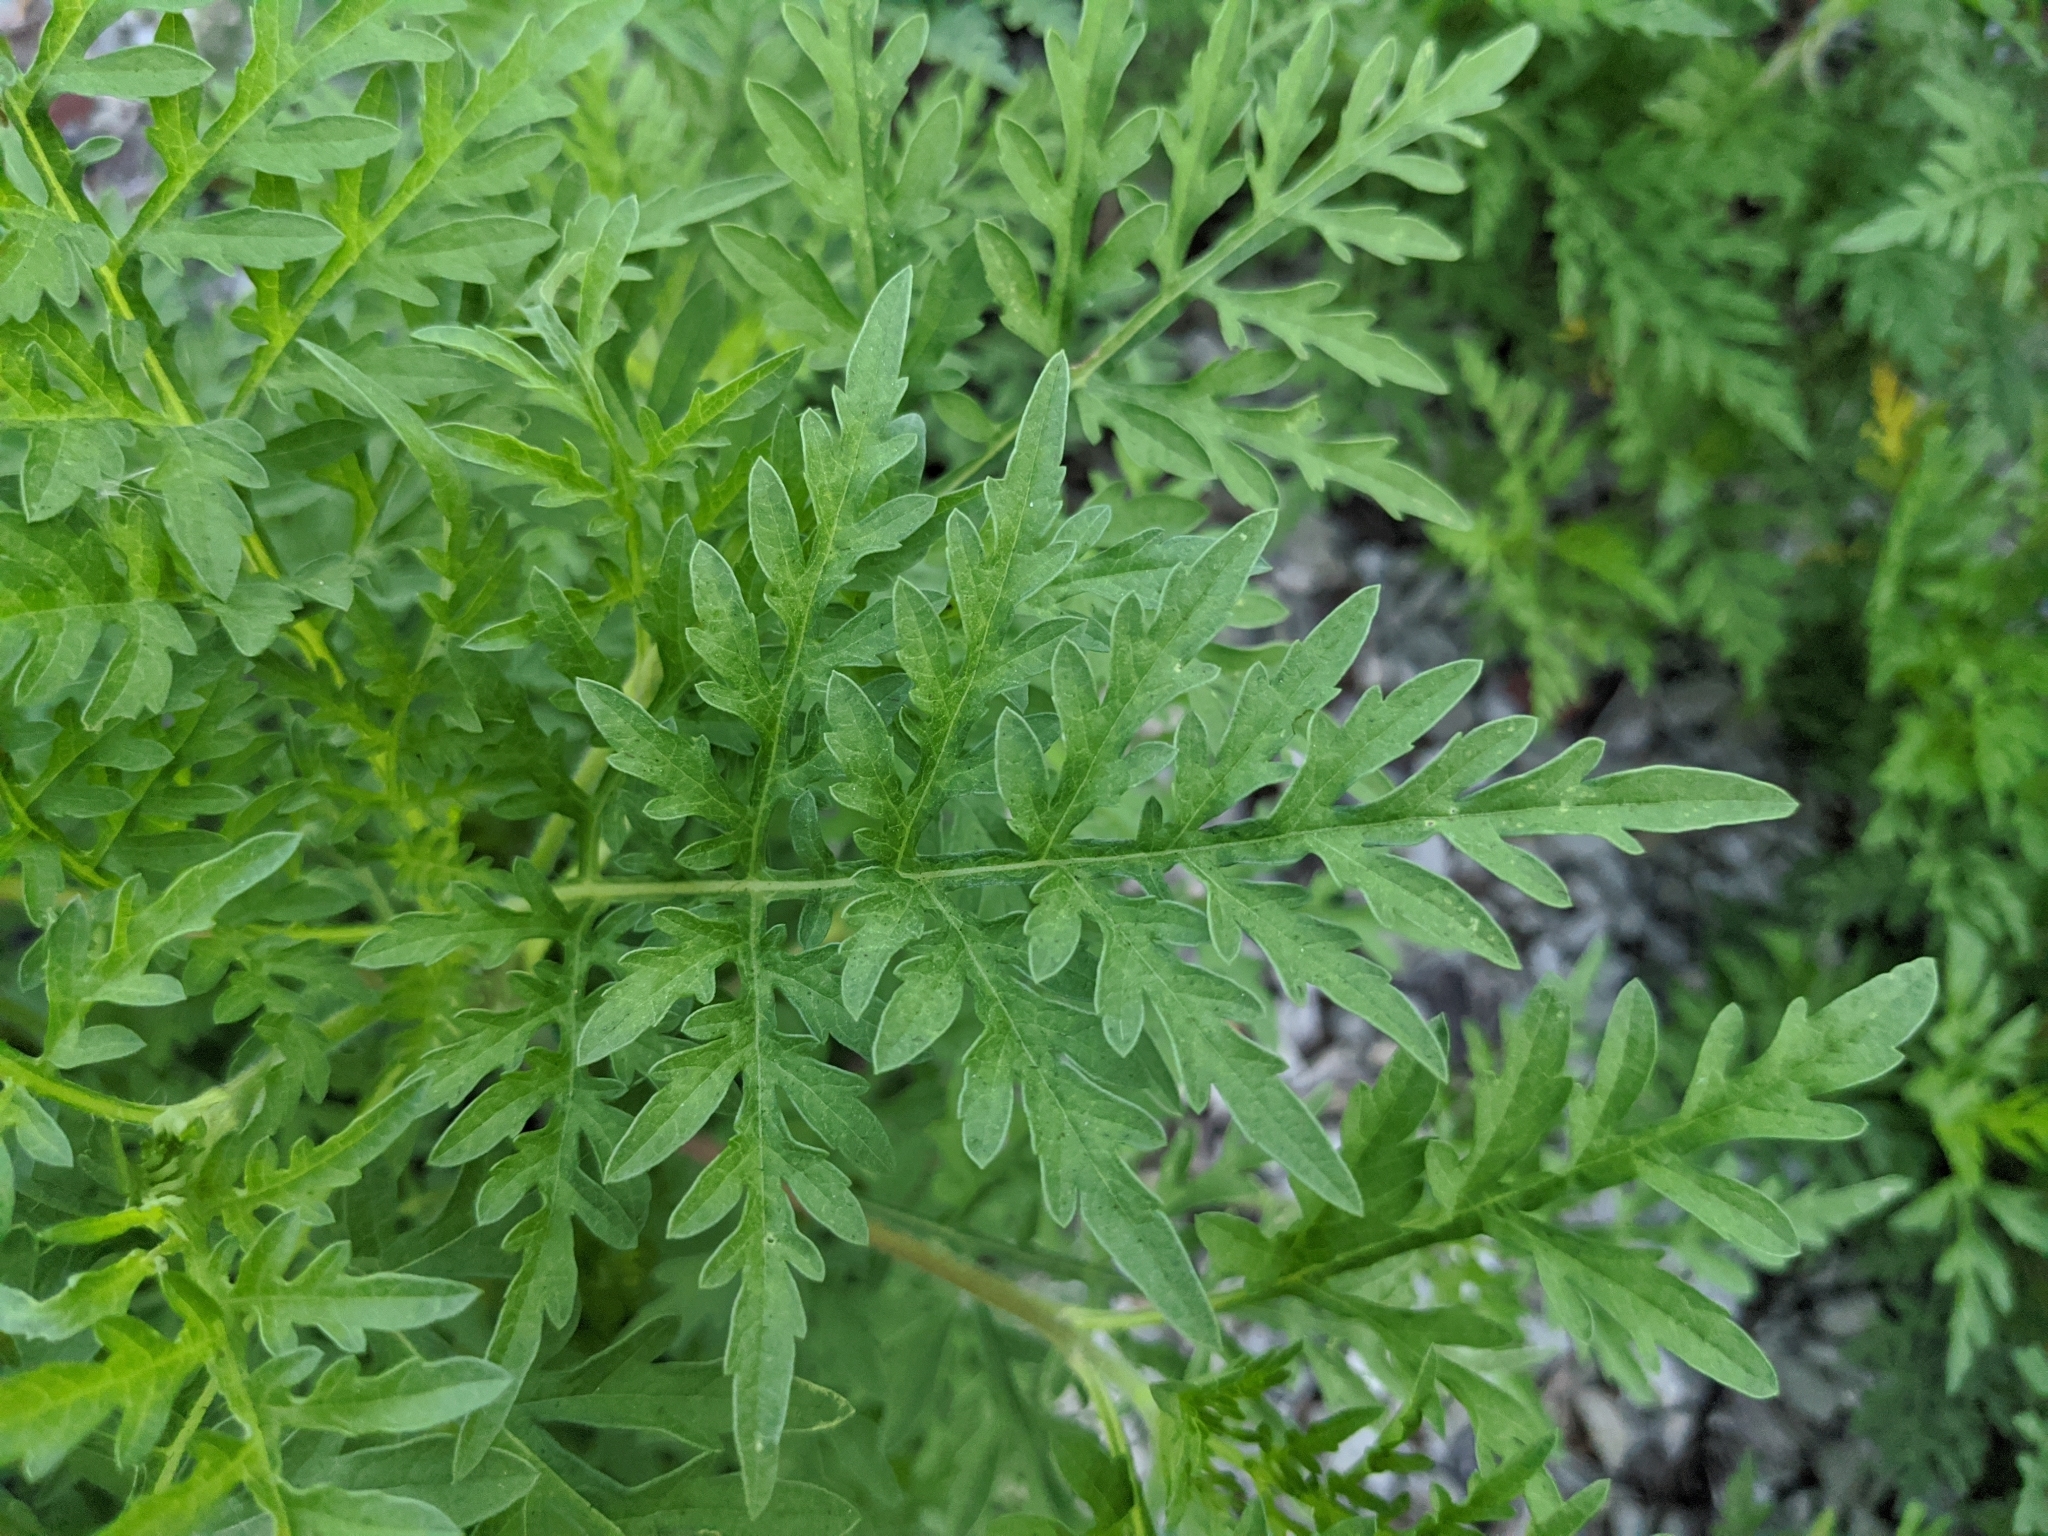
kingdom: Plantae
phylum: Tracheophyta
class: Magnoliopsida
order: Asterales
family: Asteraceae
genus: Ambrosia
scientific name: Ambrosia artemisiifolia
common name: Annual ragweed
